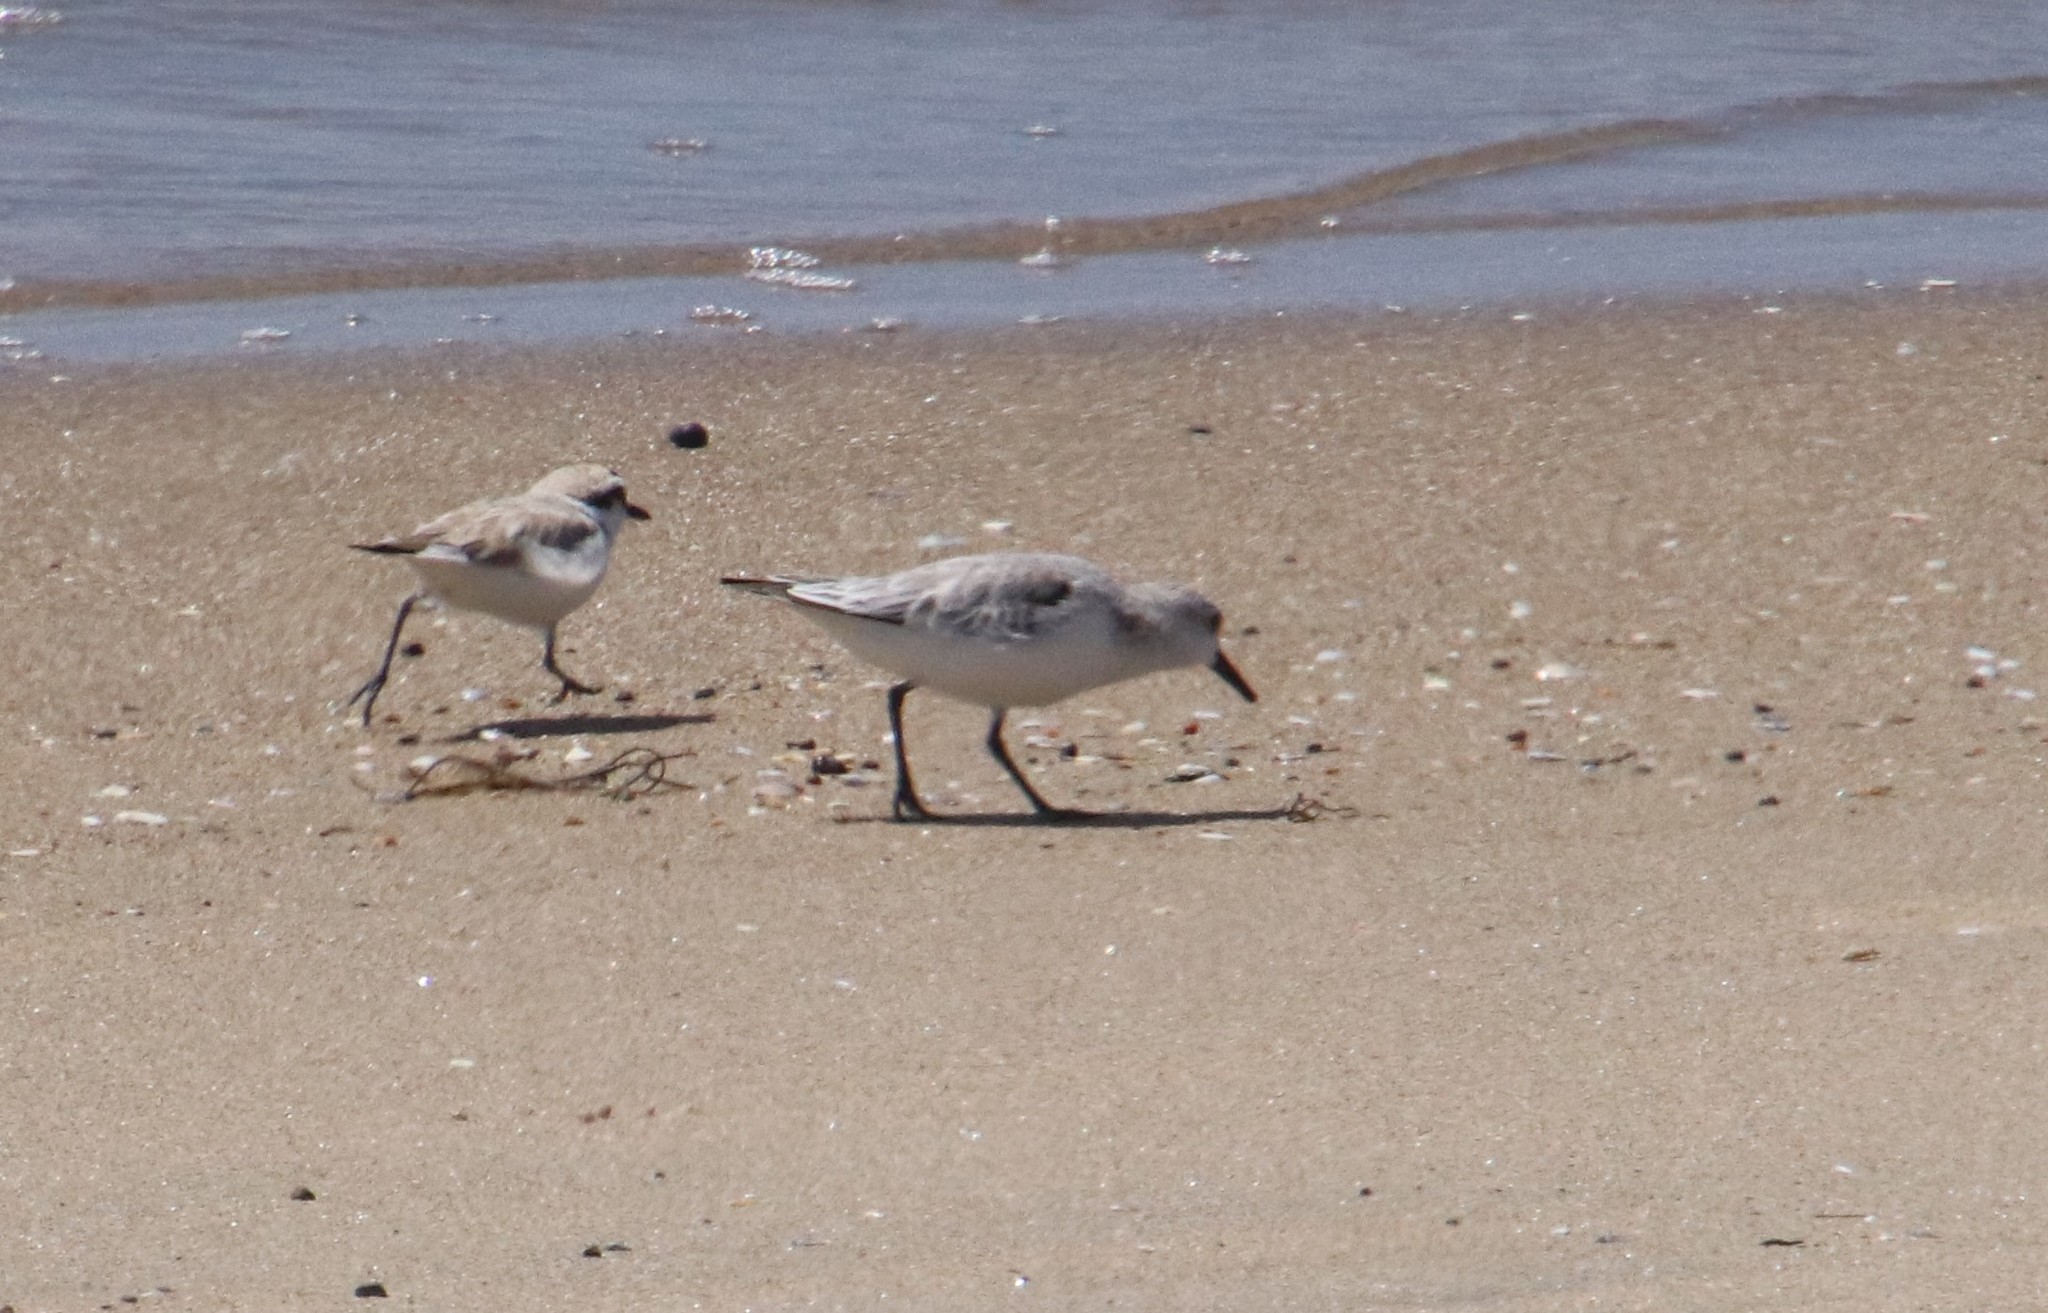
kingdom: Animalia
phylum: Chordata
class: Aves
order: Charadriiformes
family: Scolopacidae
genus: Calidris
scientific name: Calidris alba
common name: Sanderling
